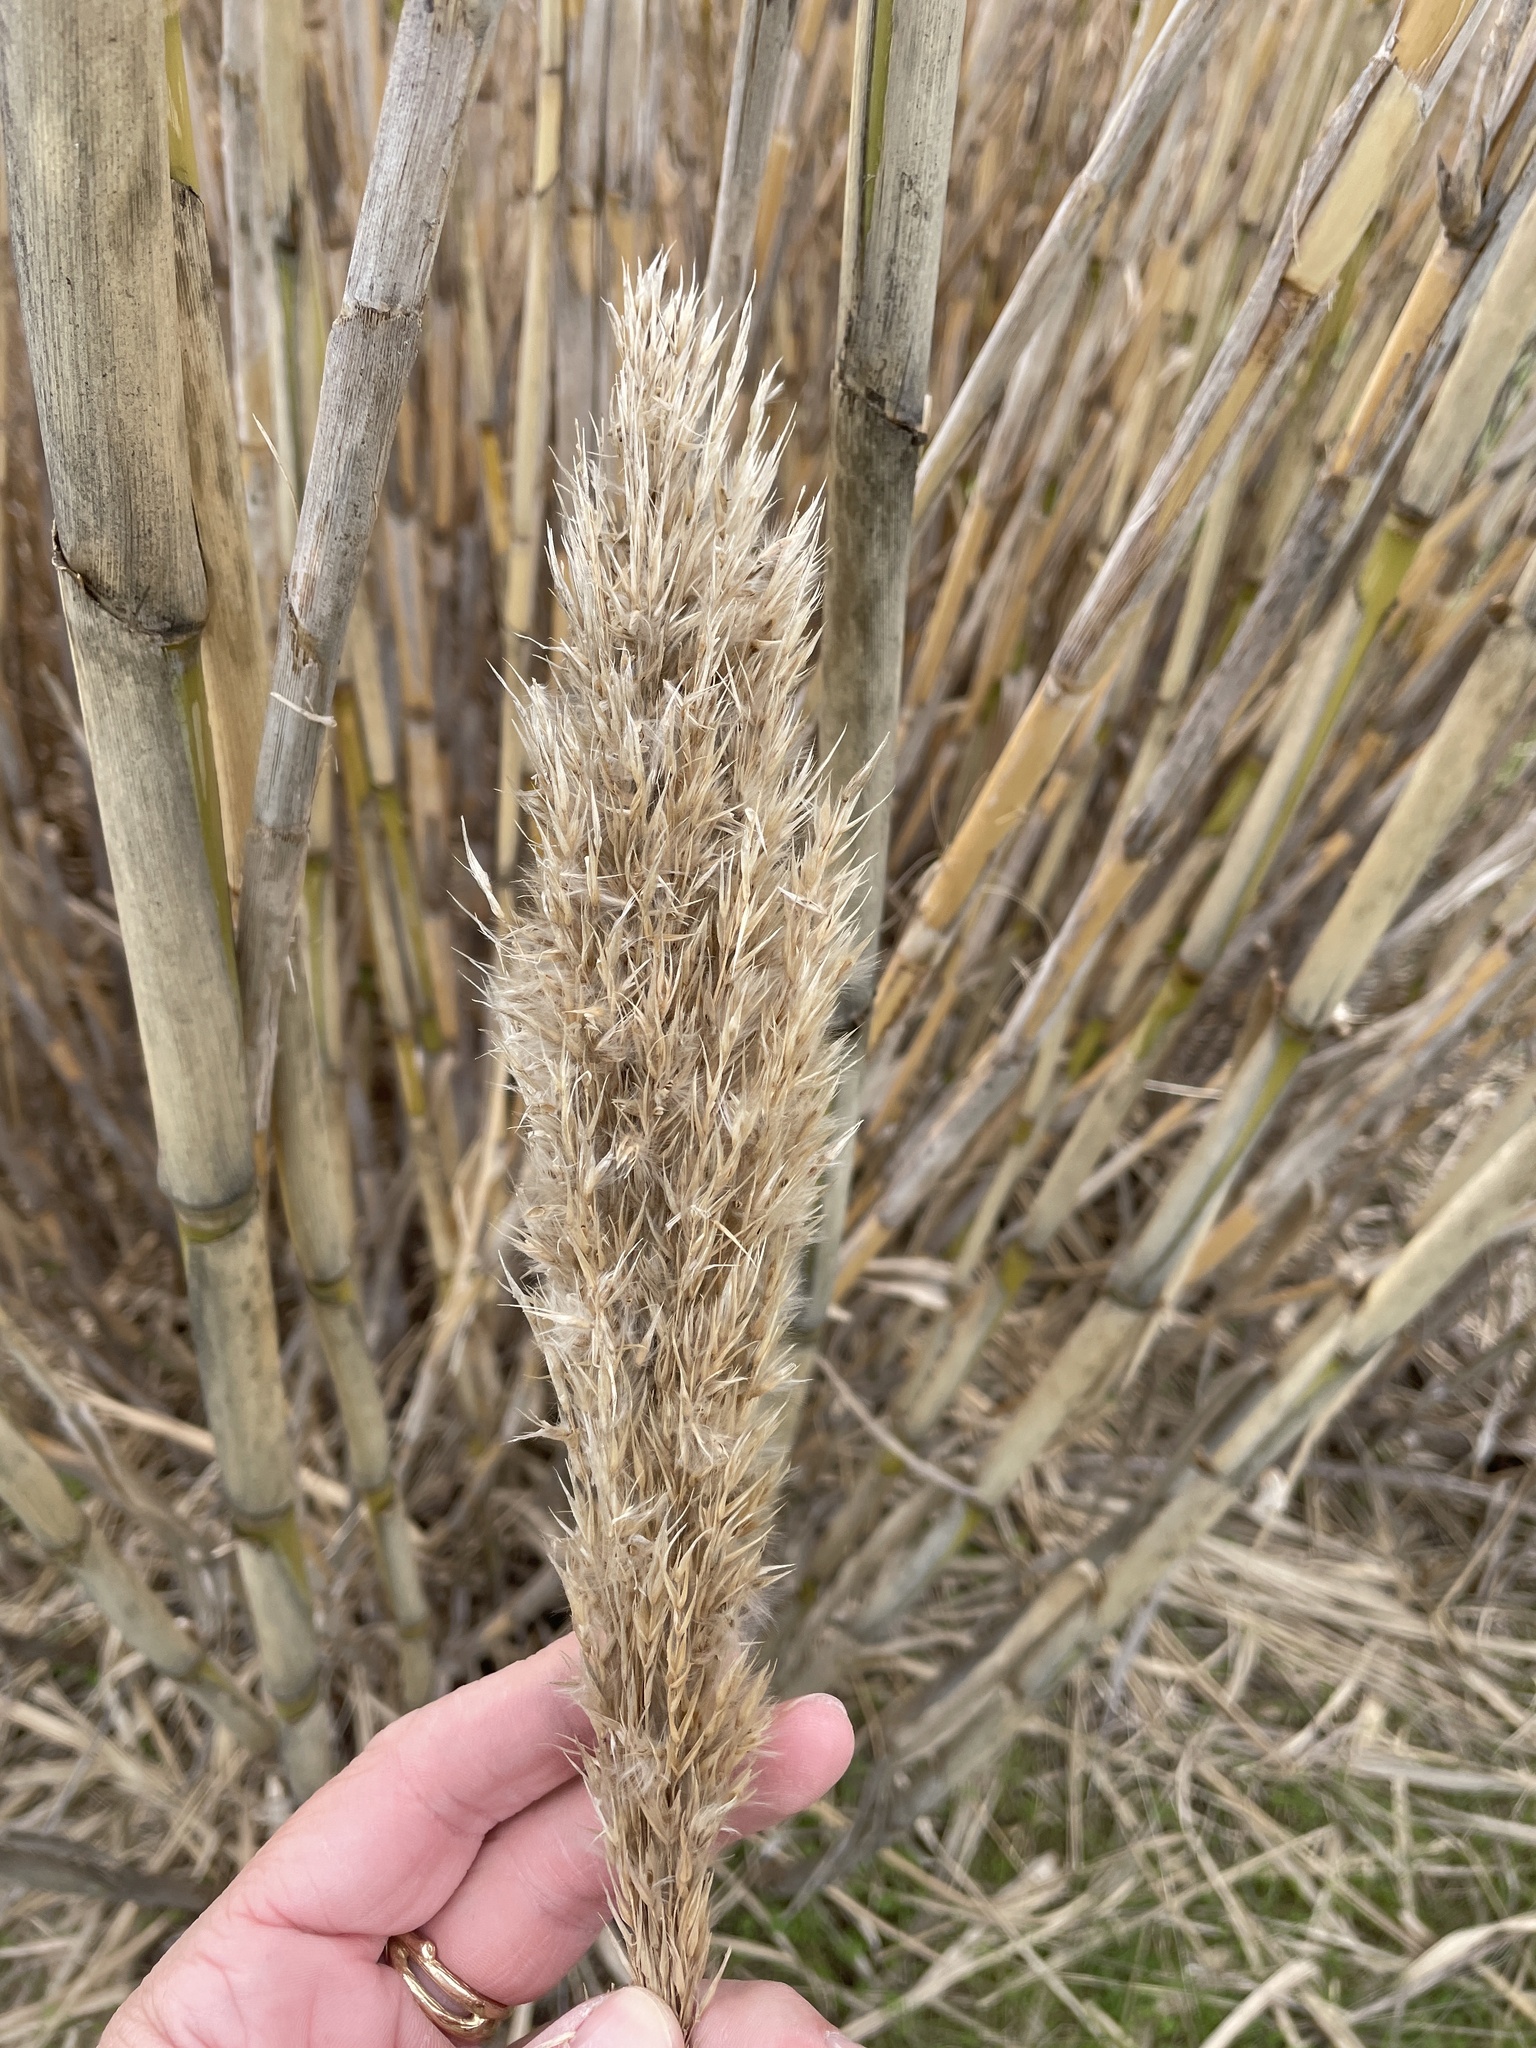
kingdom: Plantae
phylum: Tracheophyta
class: Liliopsida
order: Poales
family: Poaceae
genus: Arundo
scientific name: Arundo donax
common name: Giant reed
